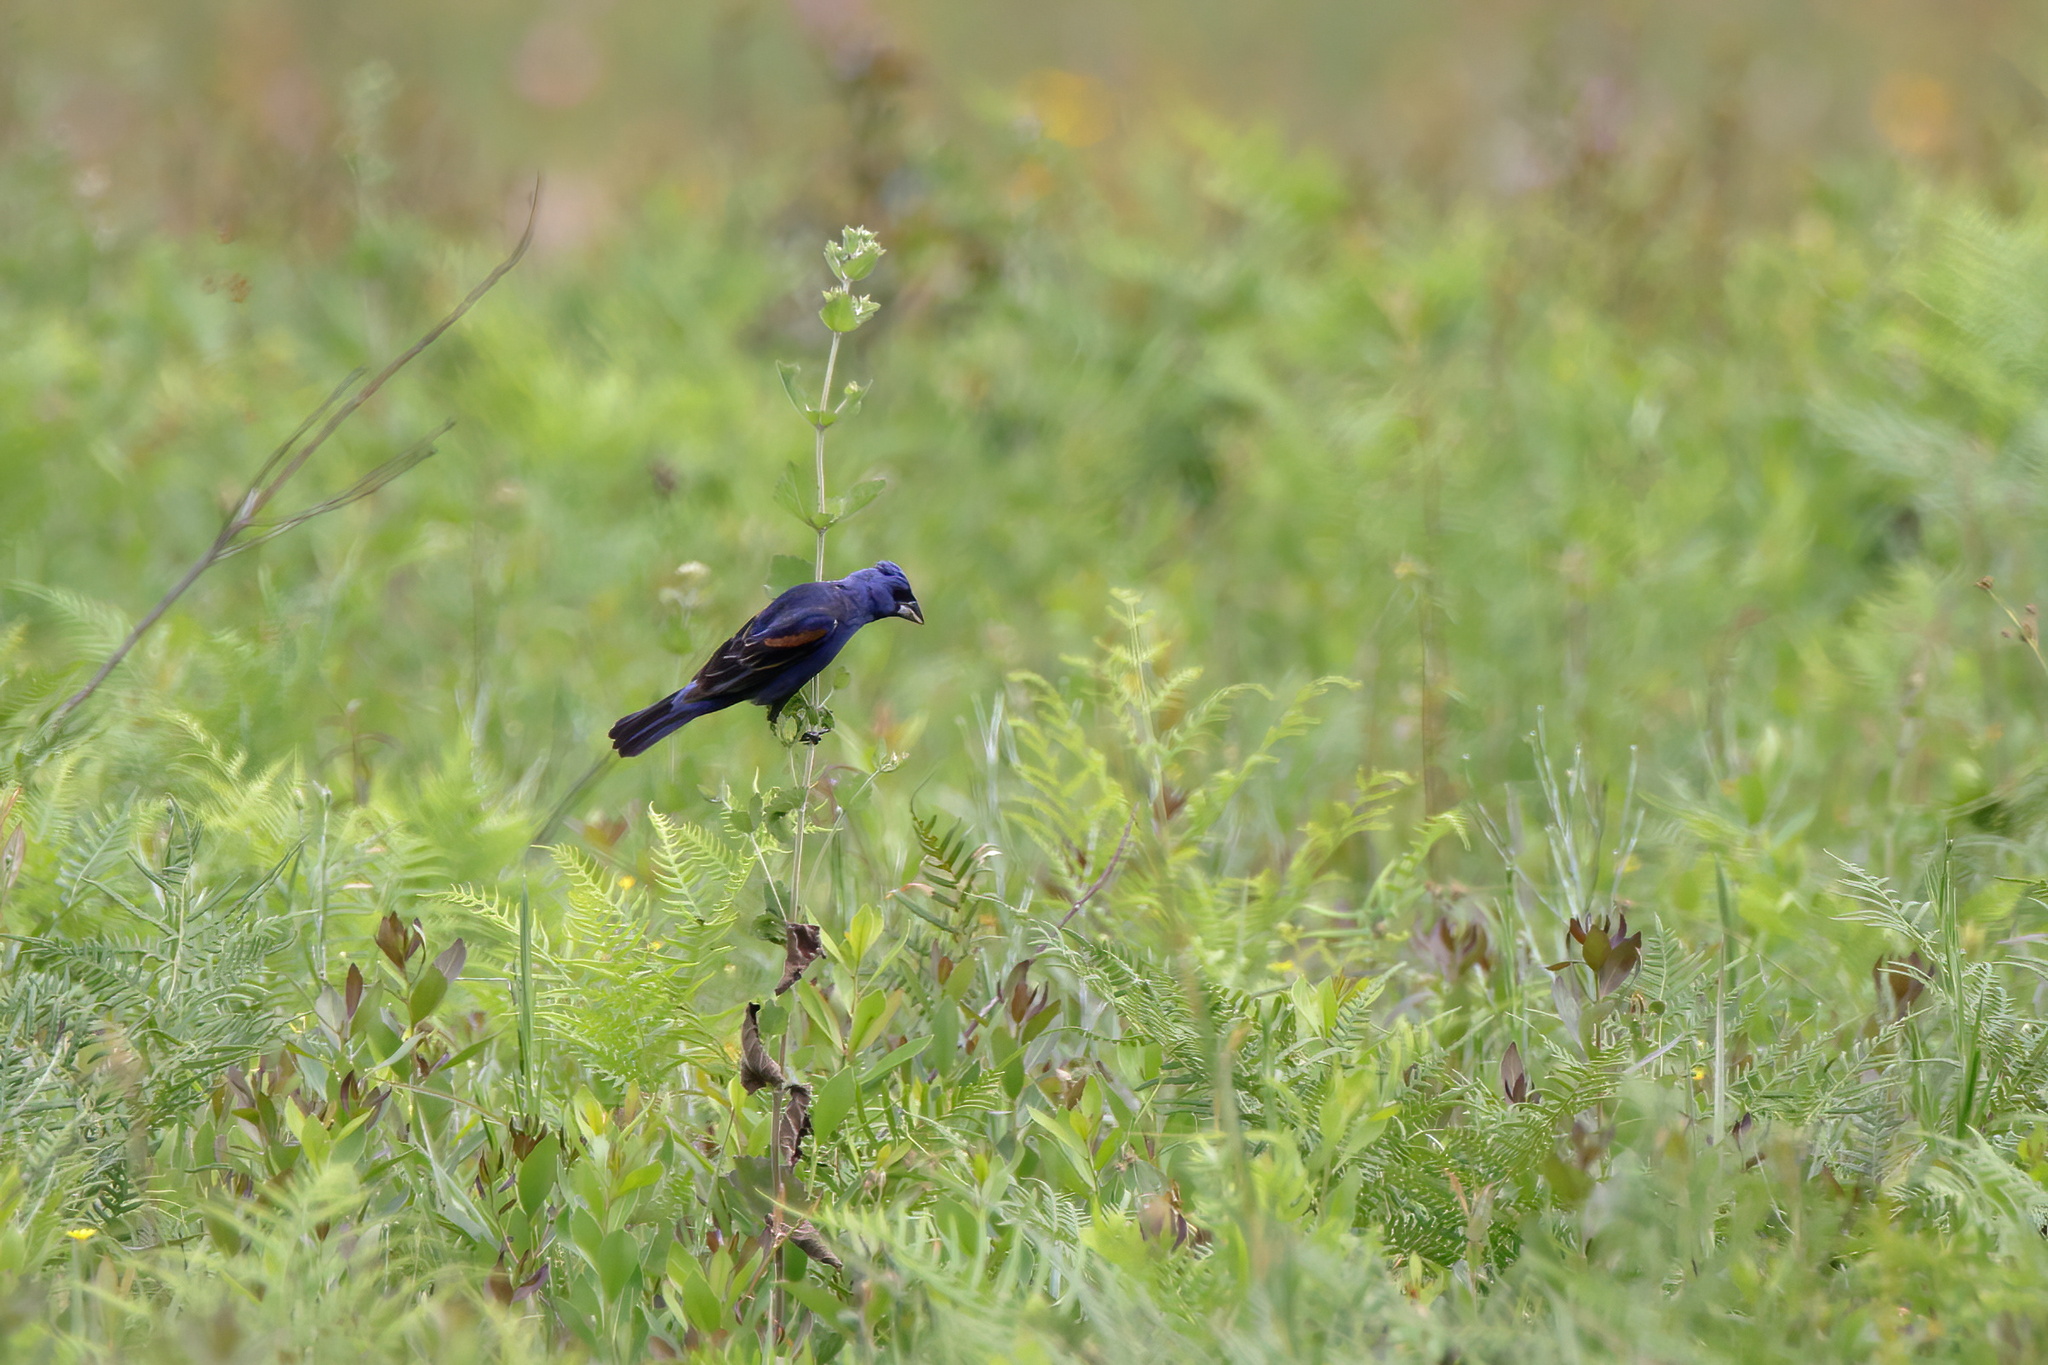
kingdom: Animalia
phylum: Chordata
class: Aves
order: Passeriformes
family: Cardinalidae
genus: Passerina
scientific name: Passerina caerulea
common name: Blue grosbeak
